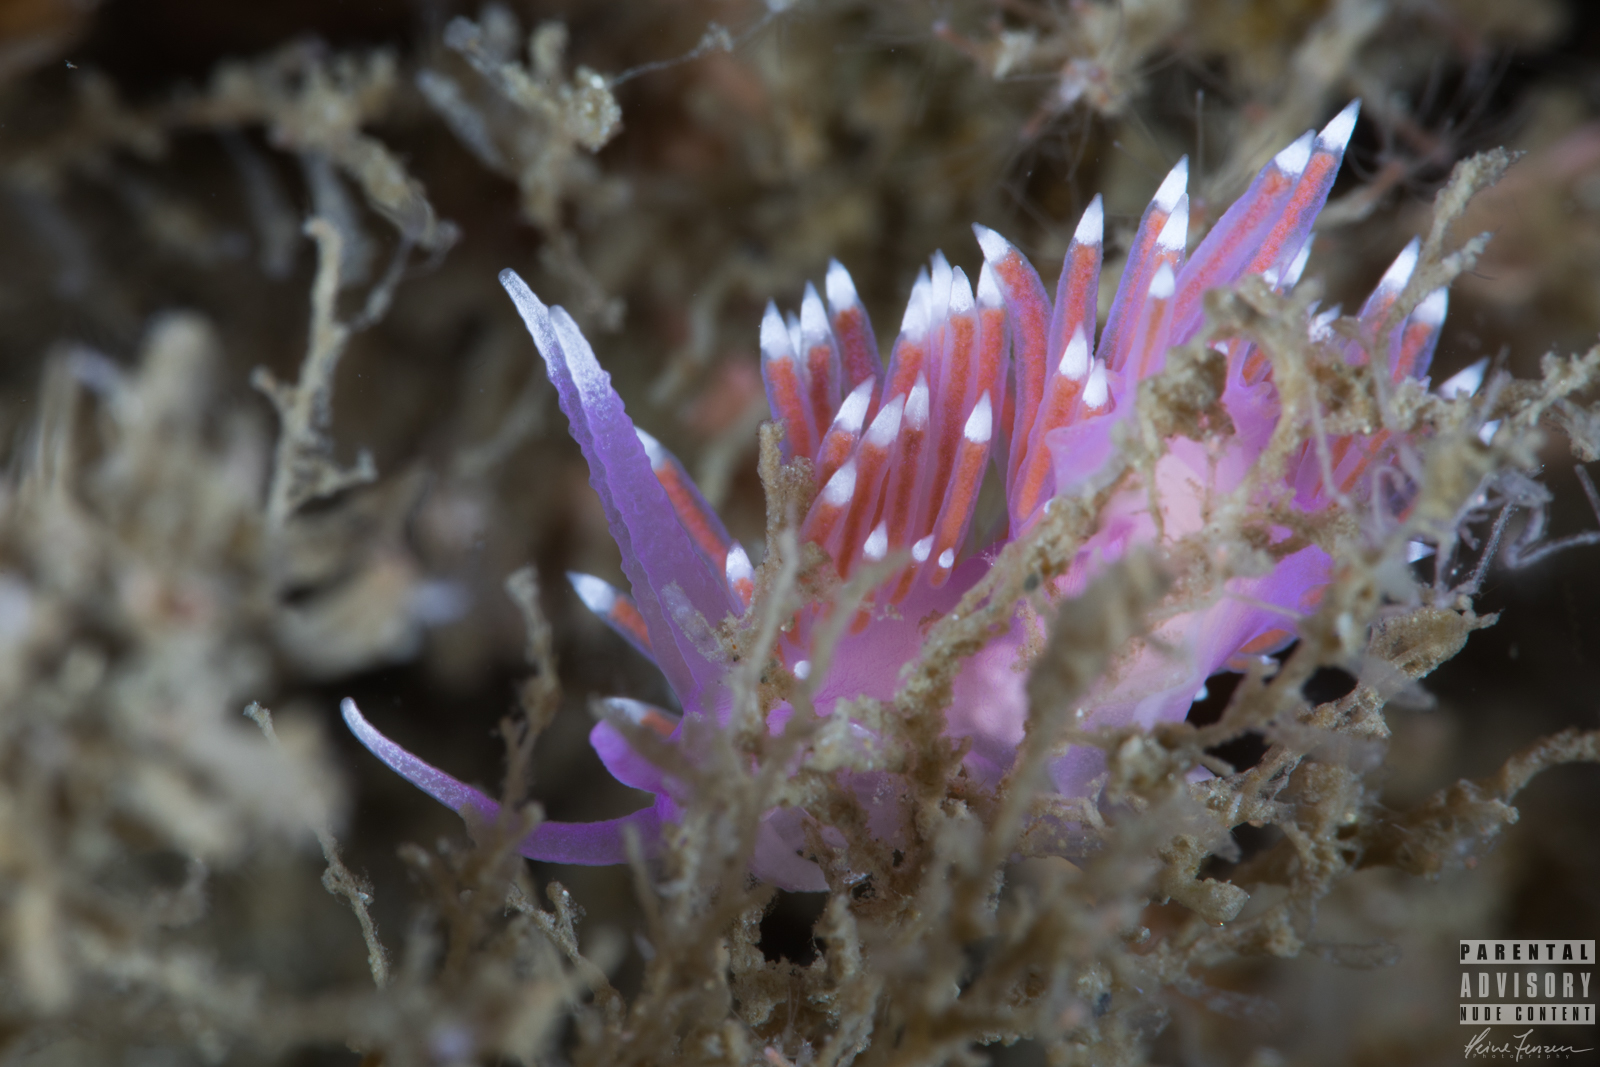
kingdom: Animalia
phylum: Mollusca
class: Gastropoda
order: Nudibranchia
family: Flabellinidae
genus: Edmundsella
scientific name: Edmundsella pedata
